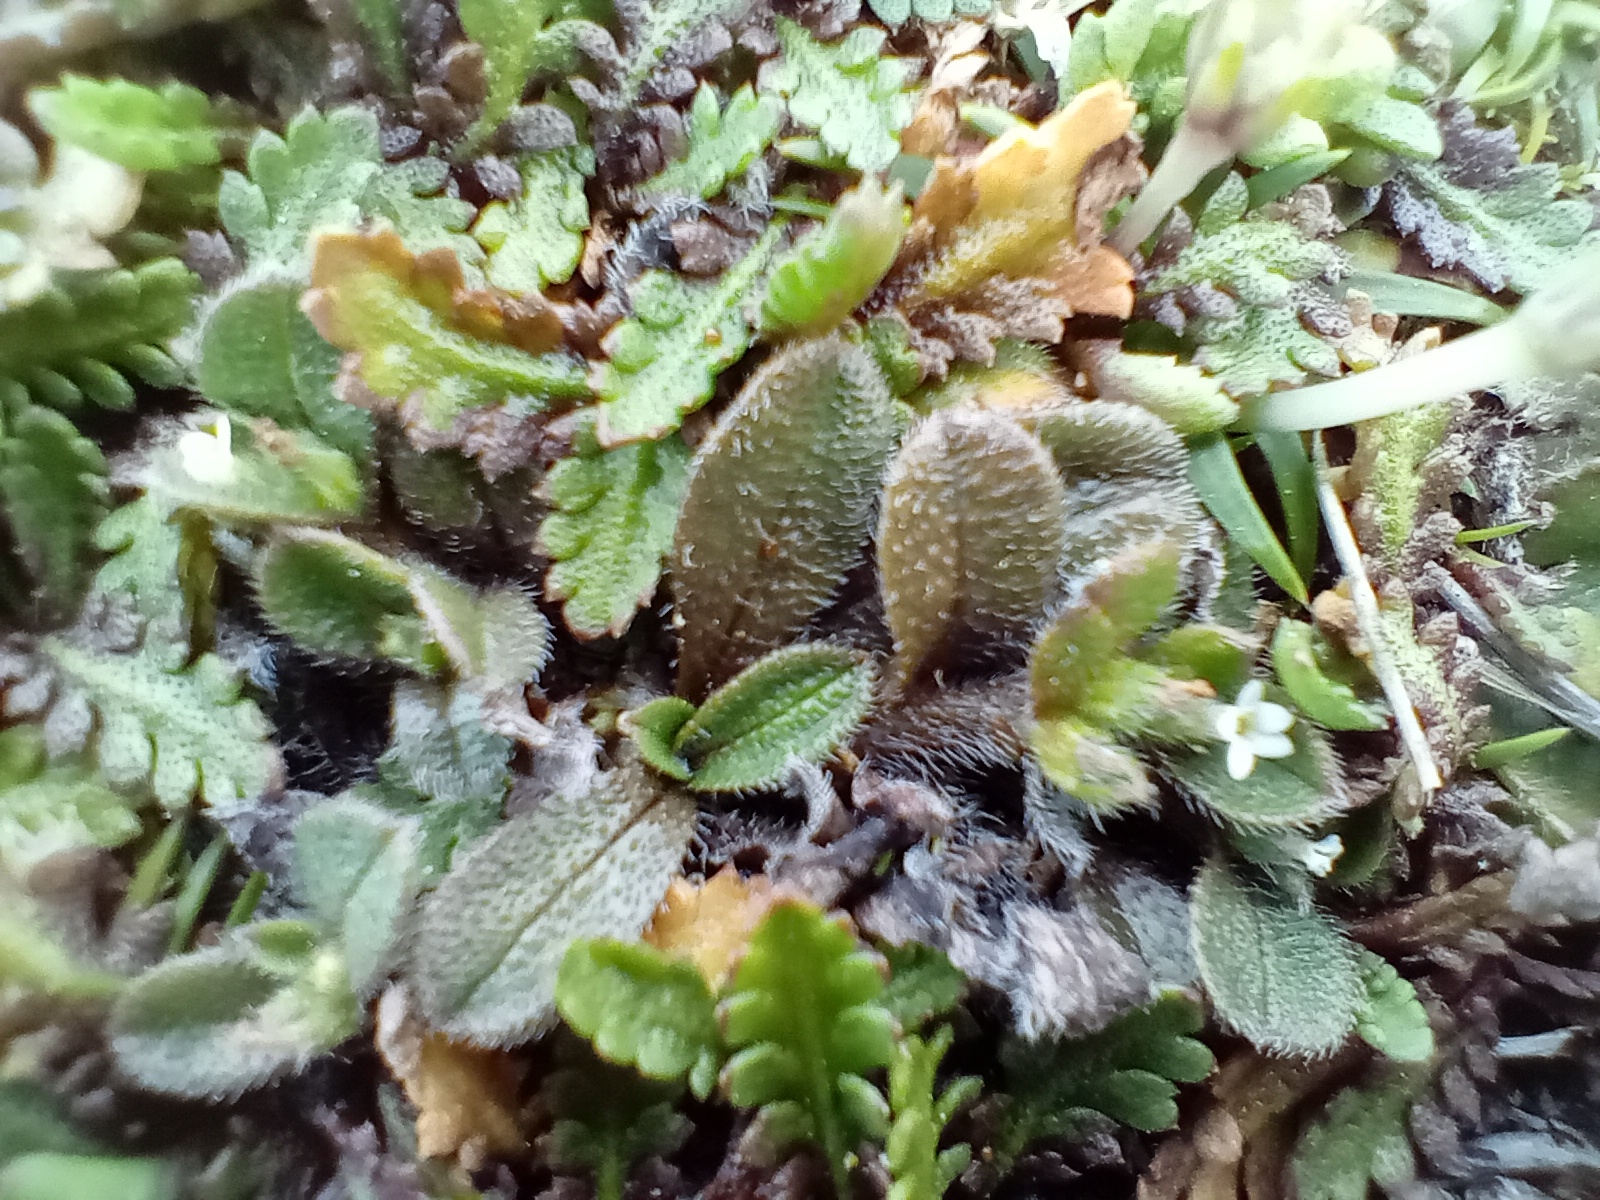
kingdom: Plantae
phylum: Tracheophyta
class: Magnoliopsida
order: Boraginales
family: Boraginaceae
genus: Myosotis
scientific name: Myosotis antarctica
